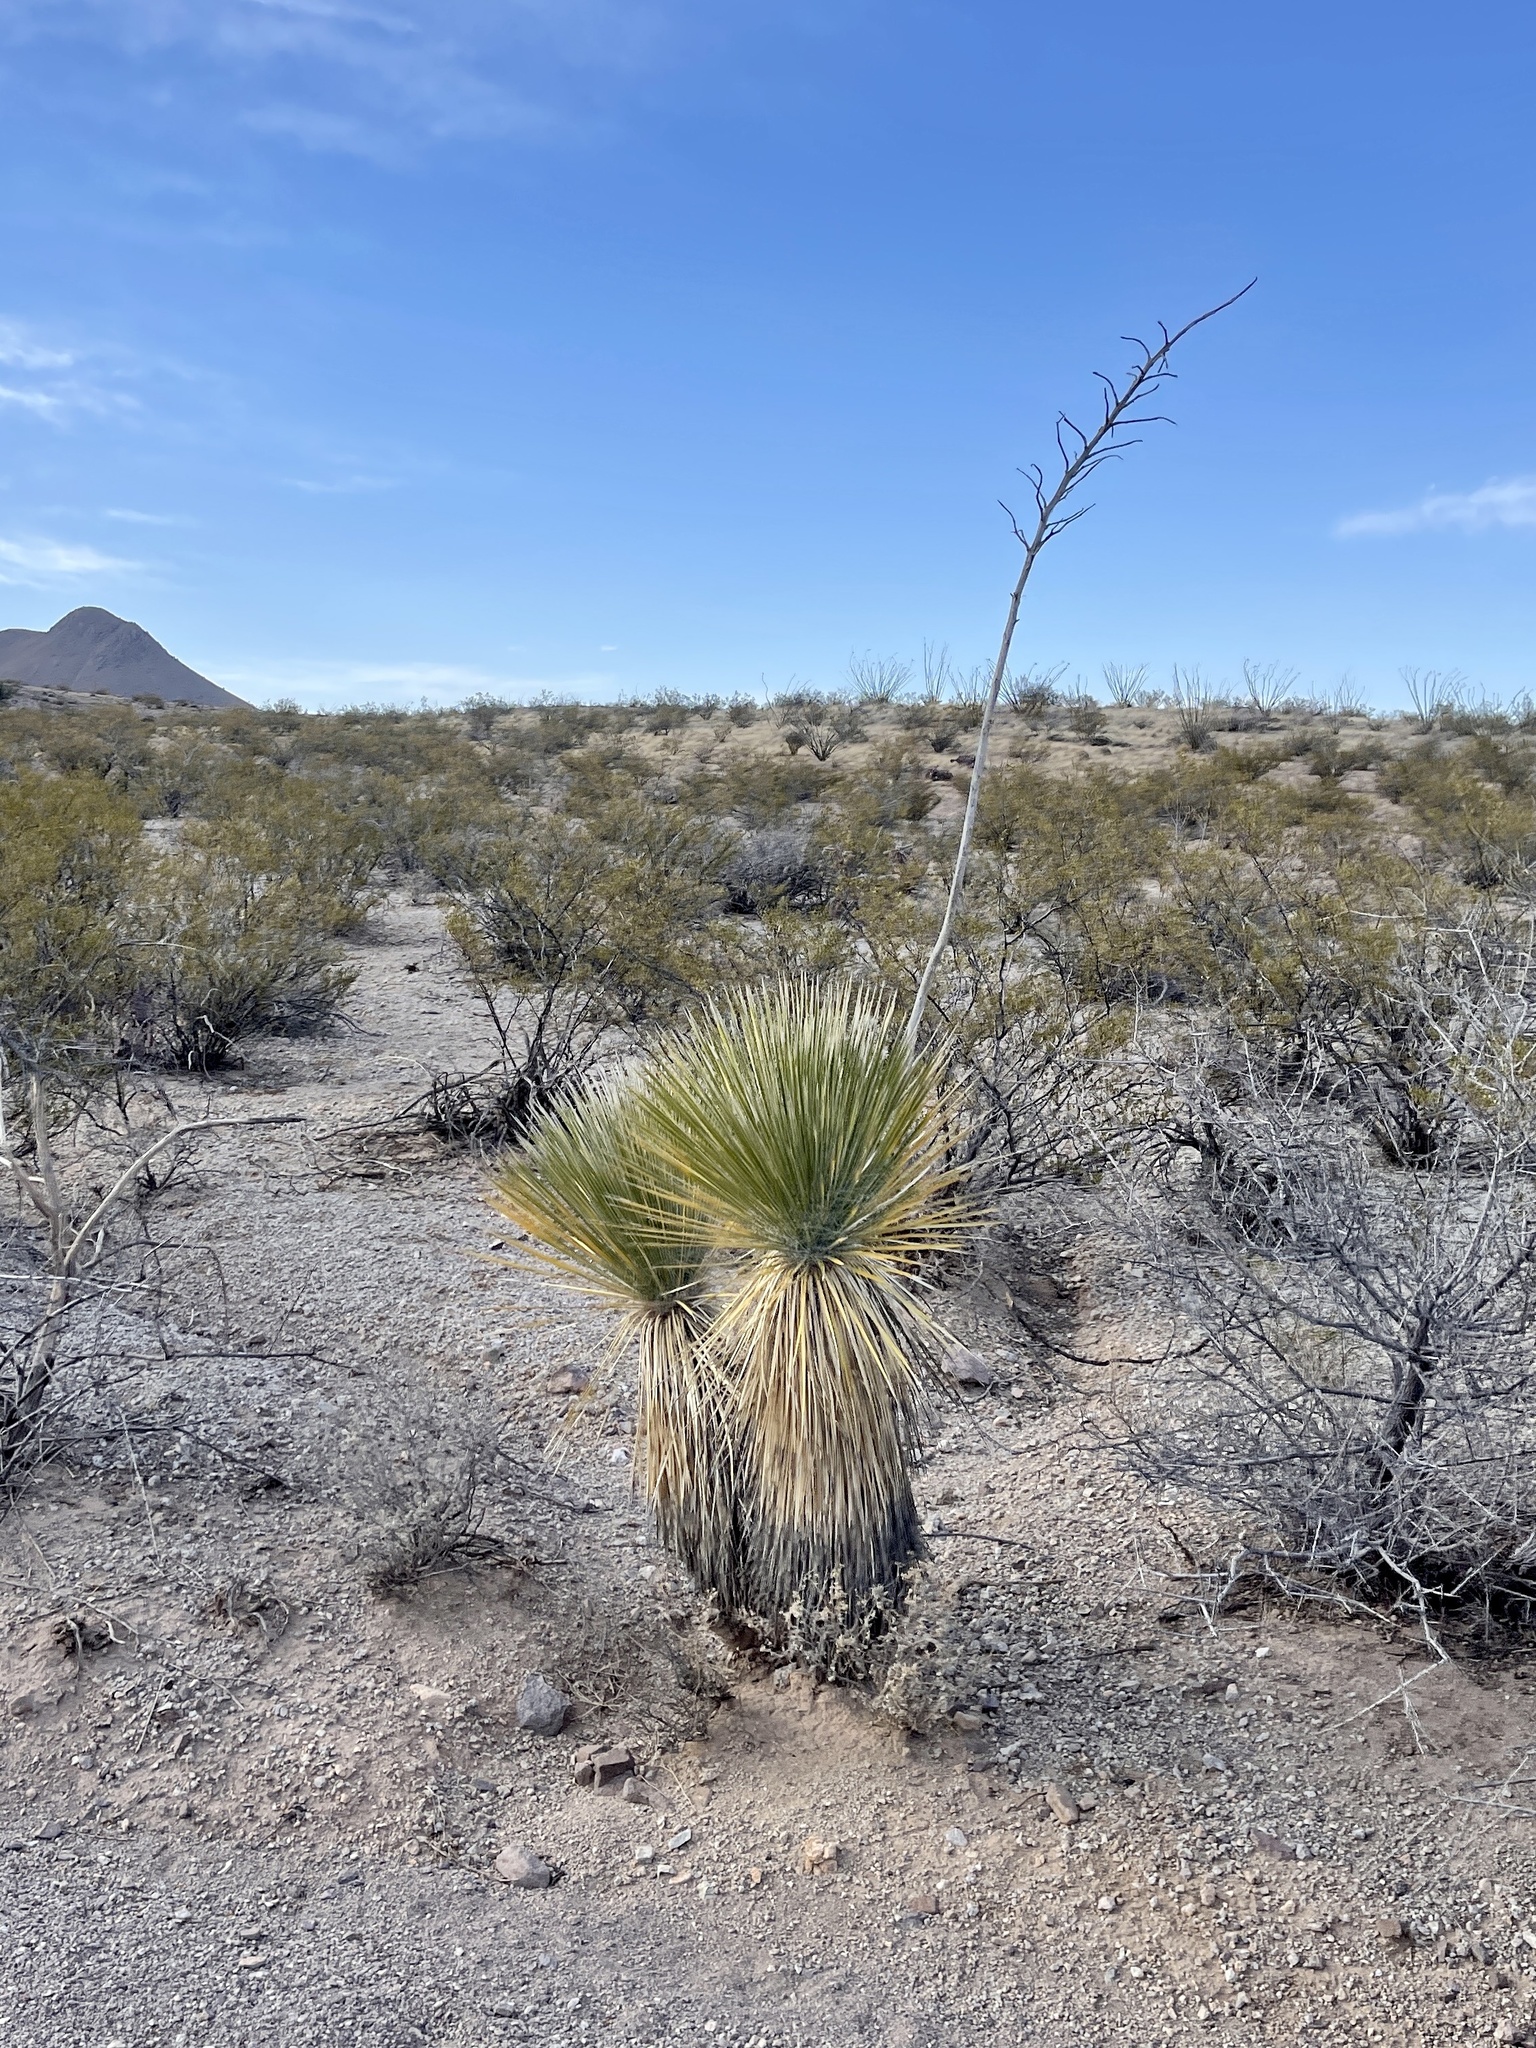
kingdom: Plantae
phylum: Tracheophyta
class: Liliopsida
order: Asparagales
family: Asparagaceae
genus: Yucca
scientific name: Yucca elata
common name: Palmella
